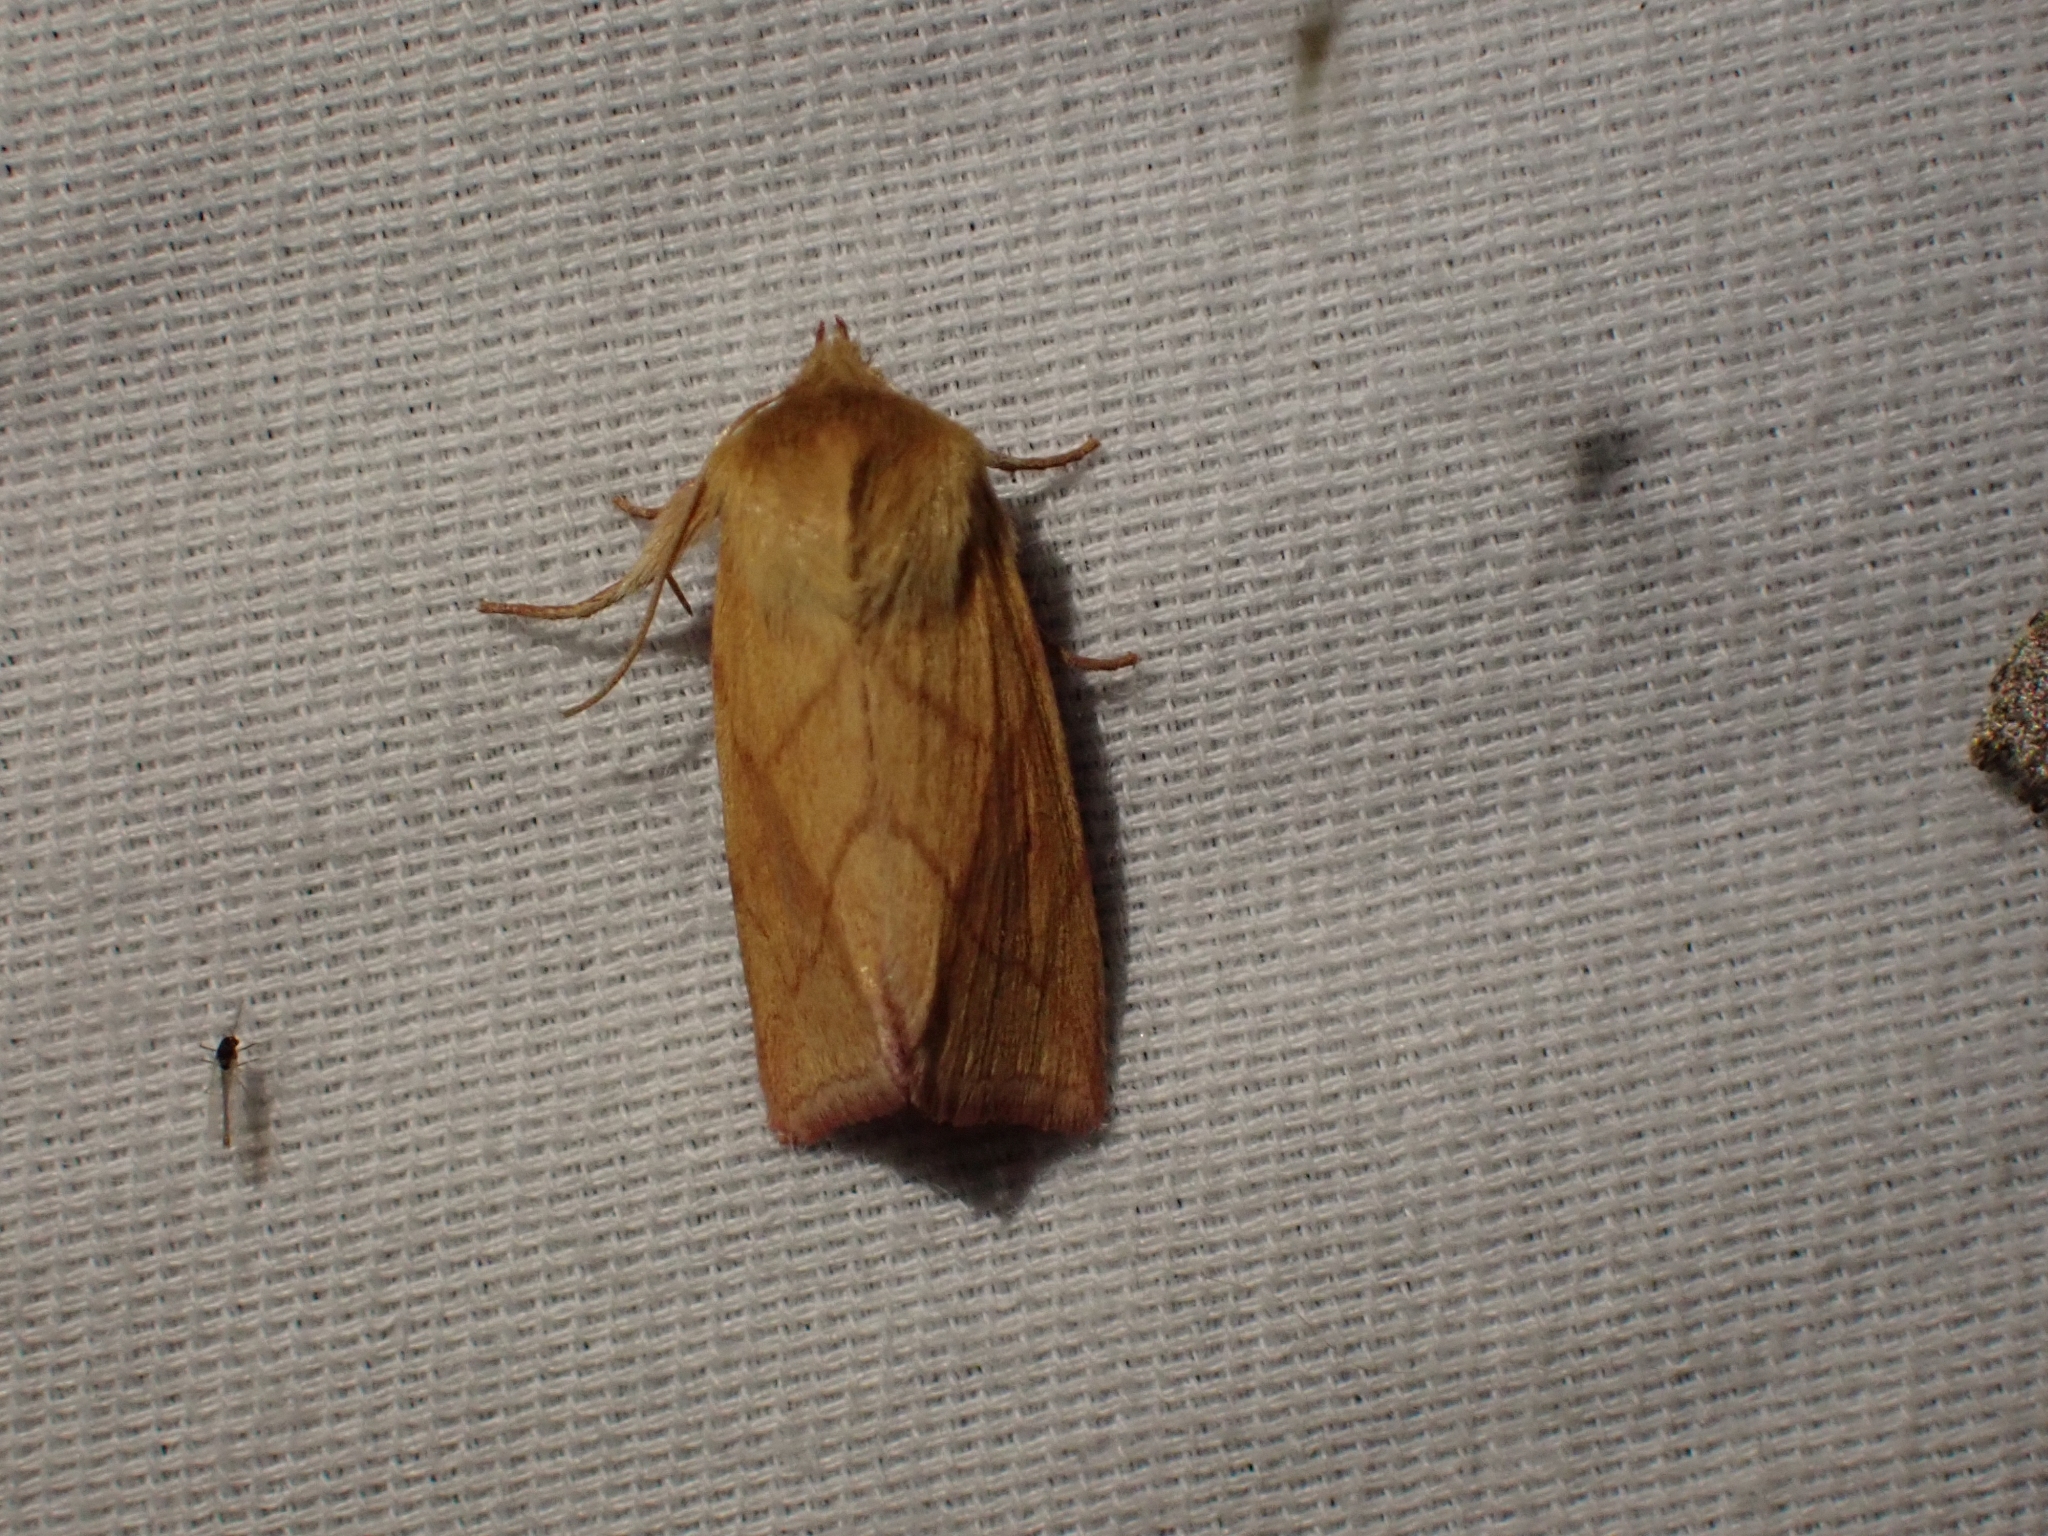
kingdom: Animalia
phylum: Arthropoda
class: Insecta
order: Lepidoptera
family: Noctuidae
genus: Zosteropoda
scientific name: Zosteropoda hirtipes
